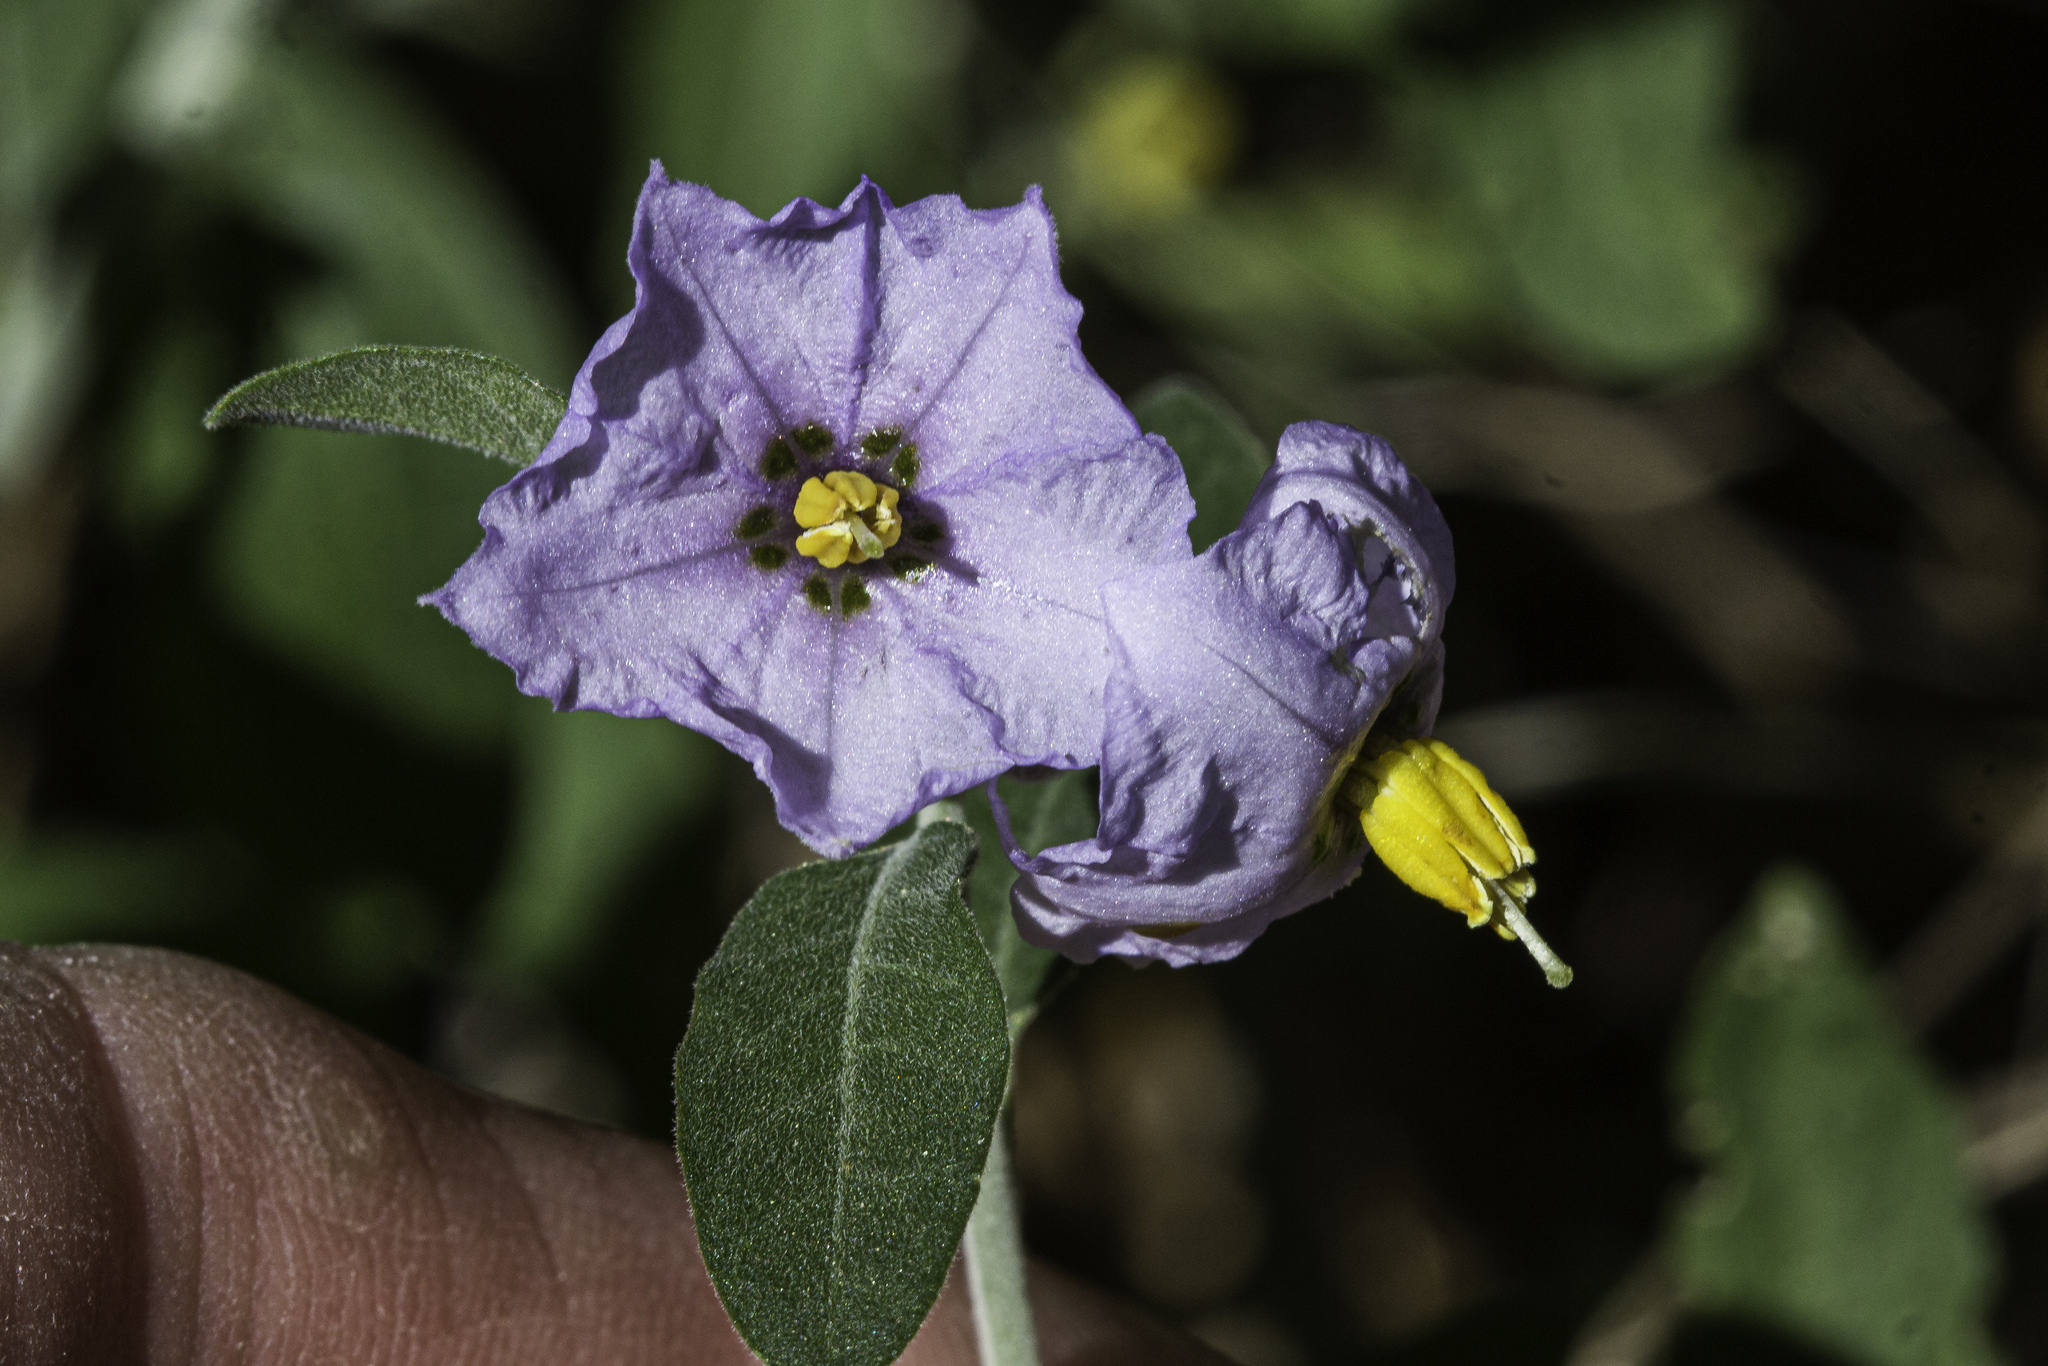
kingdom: Plantae
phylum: Tracheophyta
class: Magnoliopsida
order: Solanales
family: Solanaceae
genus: Solanum
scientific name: Solanum umbelliferum
